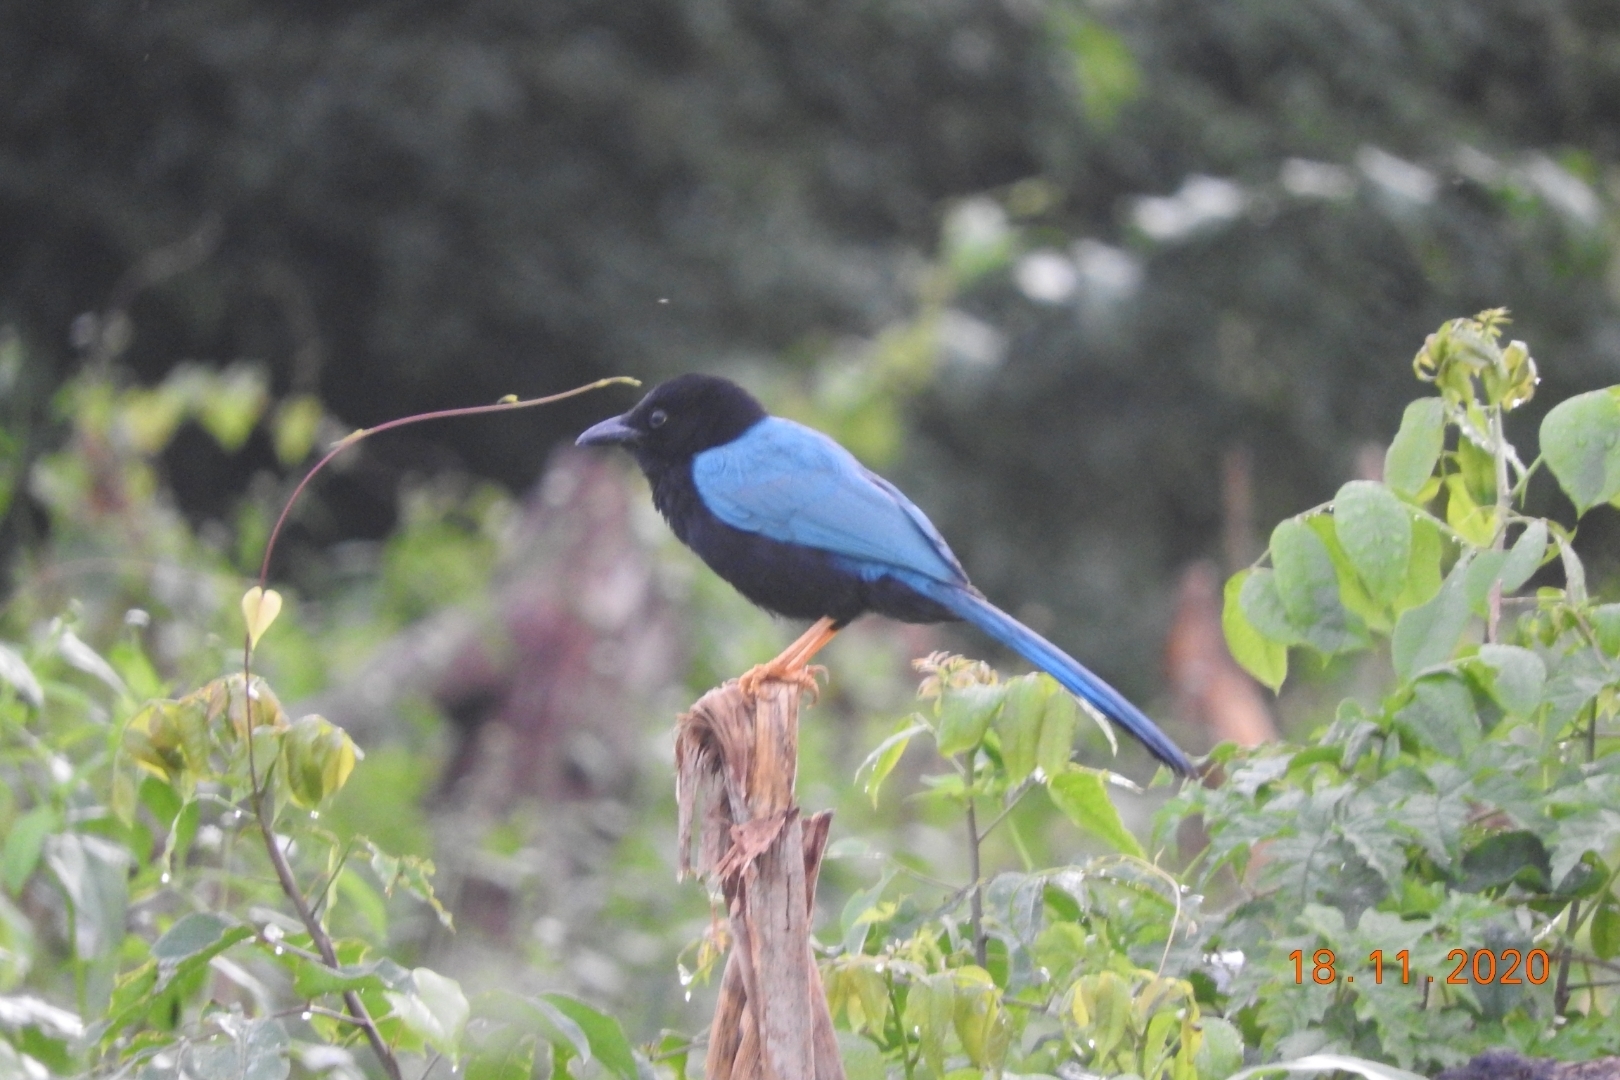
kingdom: Animalia
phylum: Chordata
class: Aves
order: Passeriformes
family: Corvidae
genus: Cyanocorax
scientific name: Cyanocorax yucatanicus
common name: Yucatan jay
